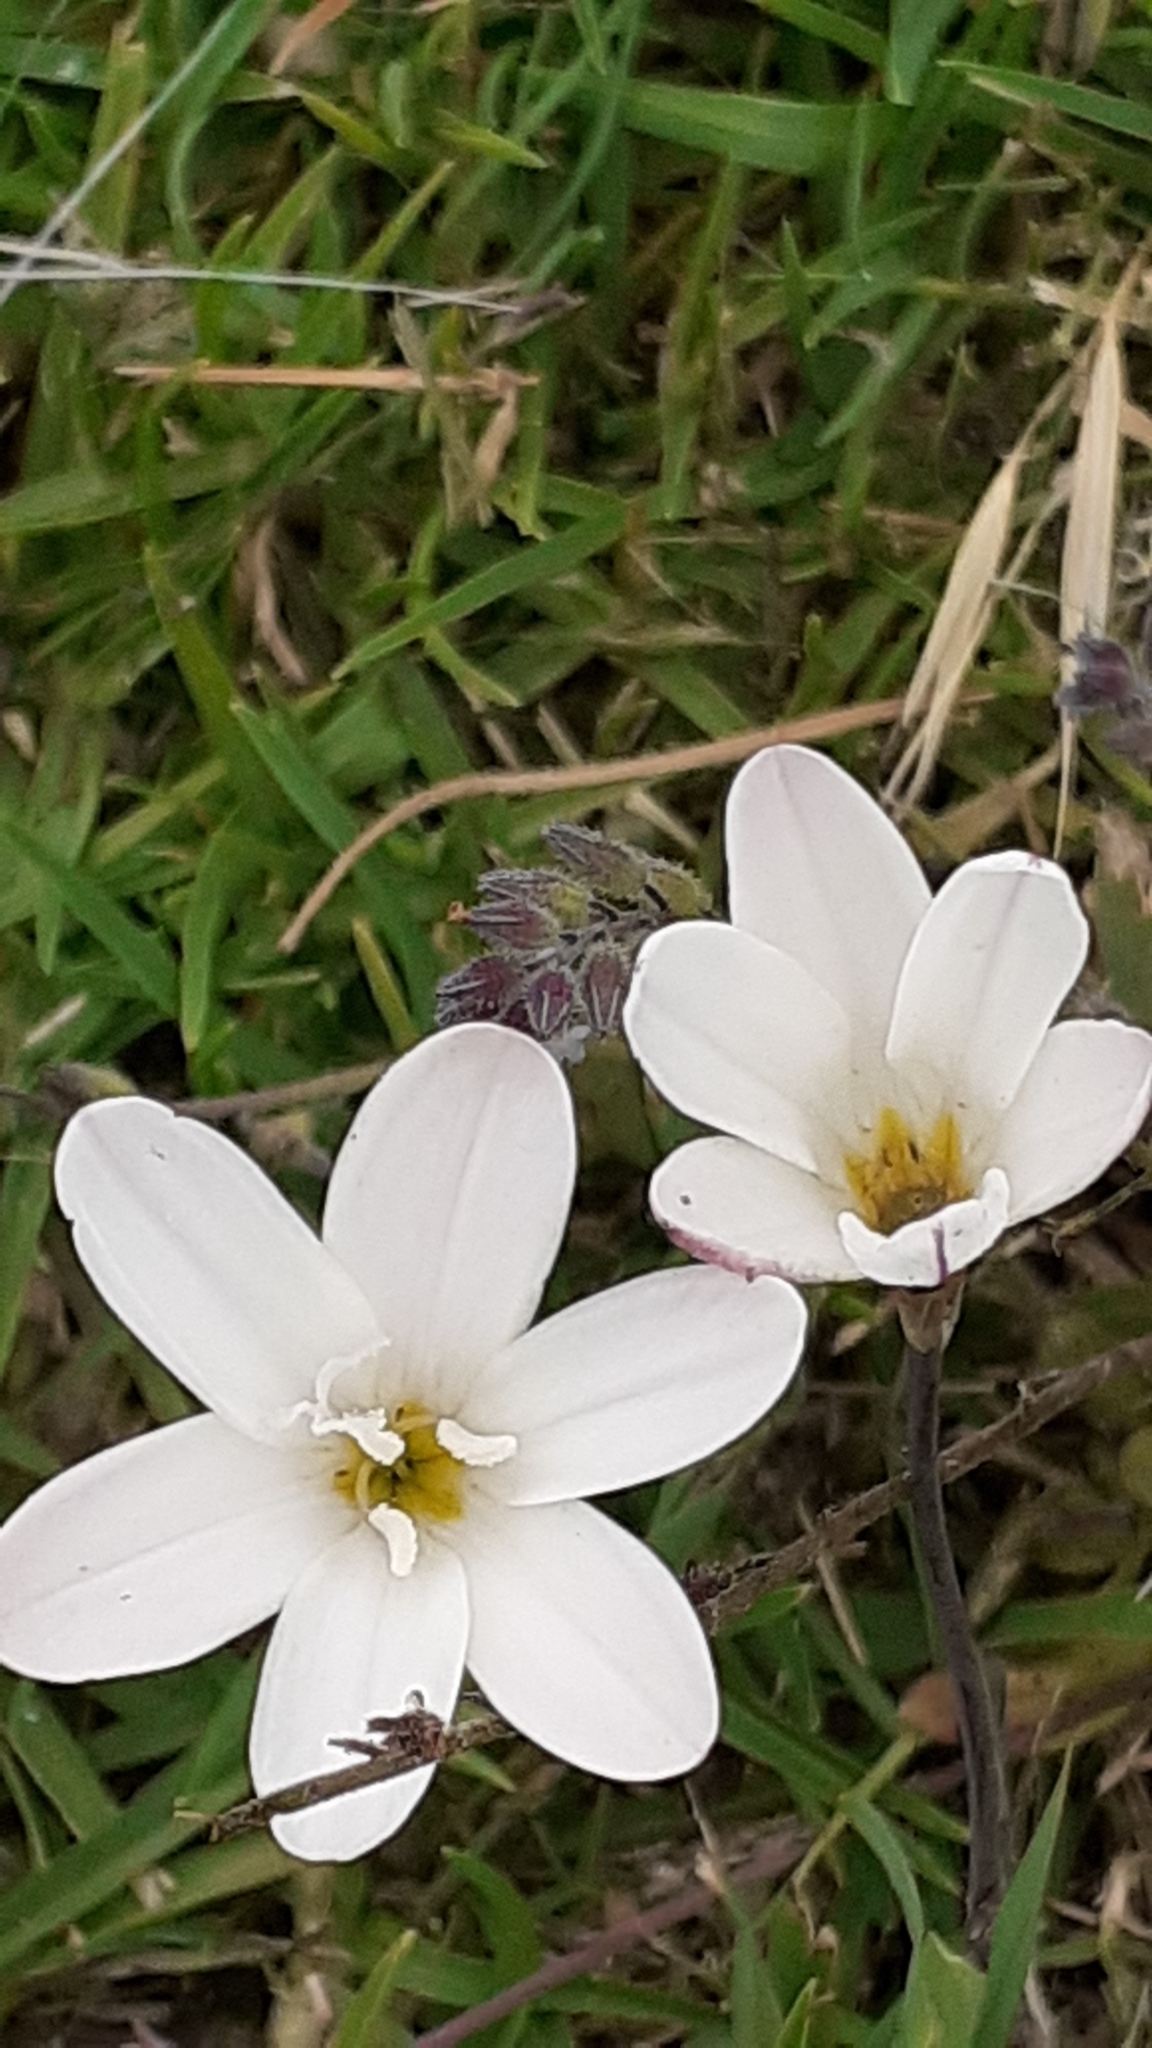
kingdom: Plantae
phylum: Tracheophyta
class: Liliopsida
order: Asparagales
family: Iridaceae
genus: Sparaxis
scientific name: Sparaxis bulbifera
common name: Harlequin-flower
